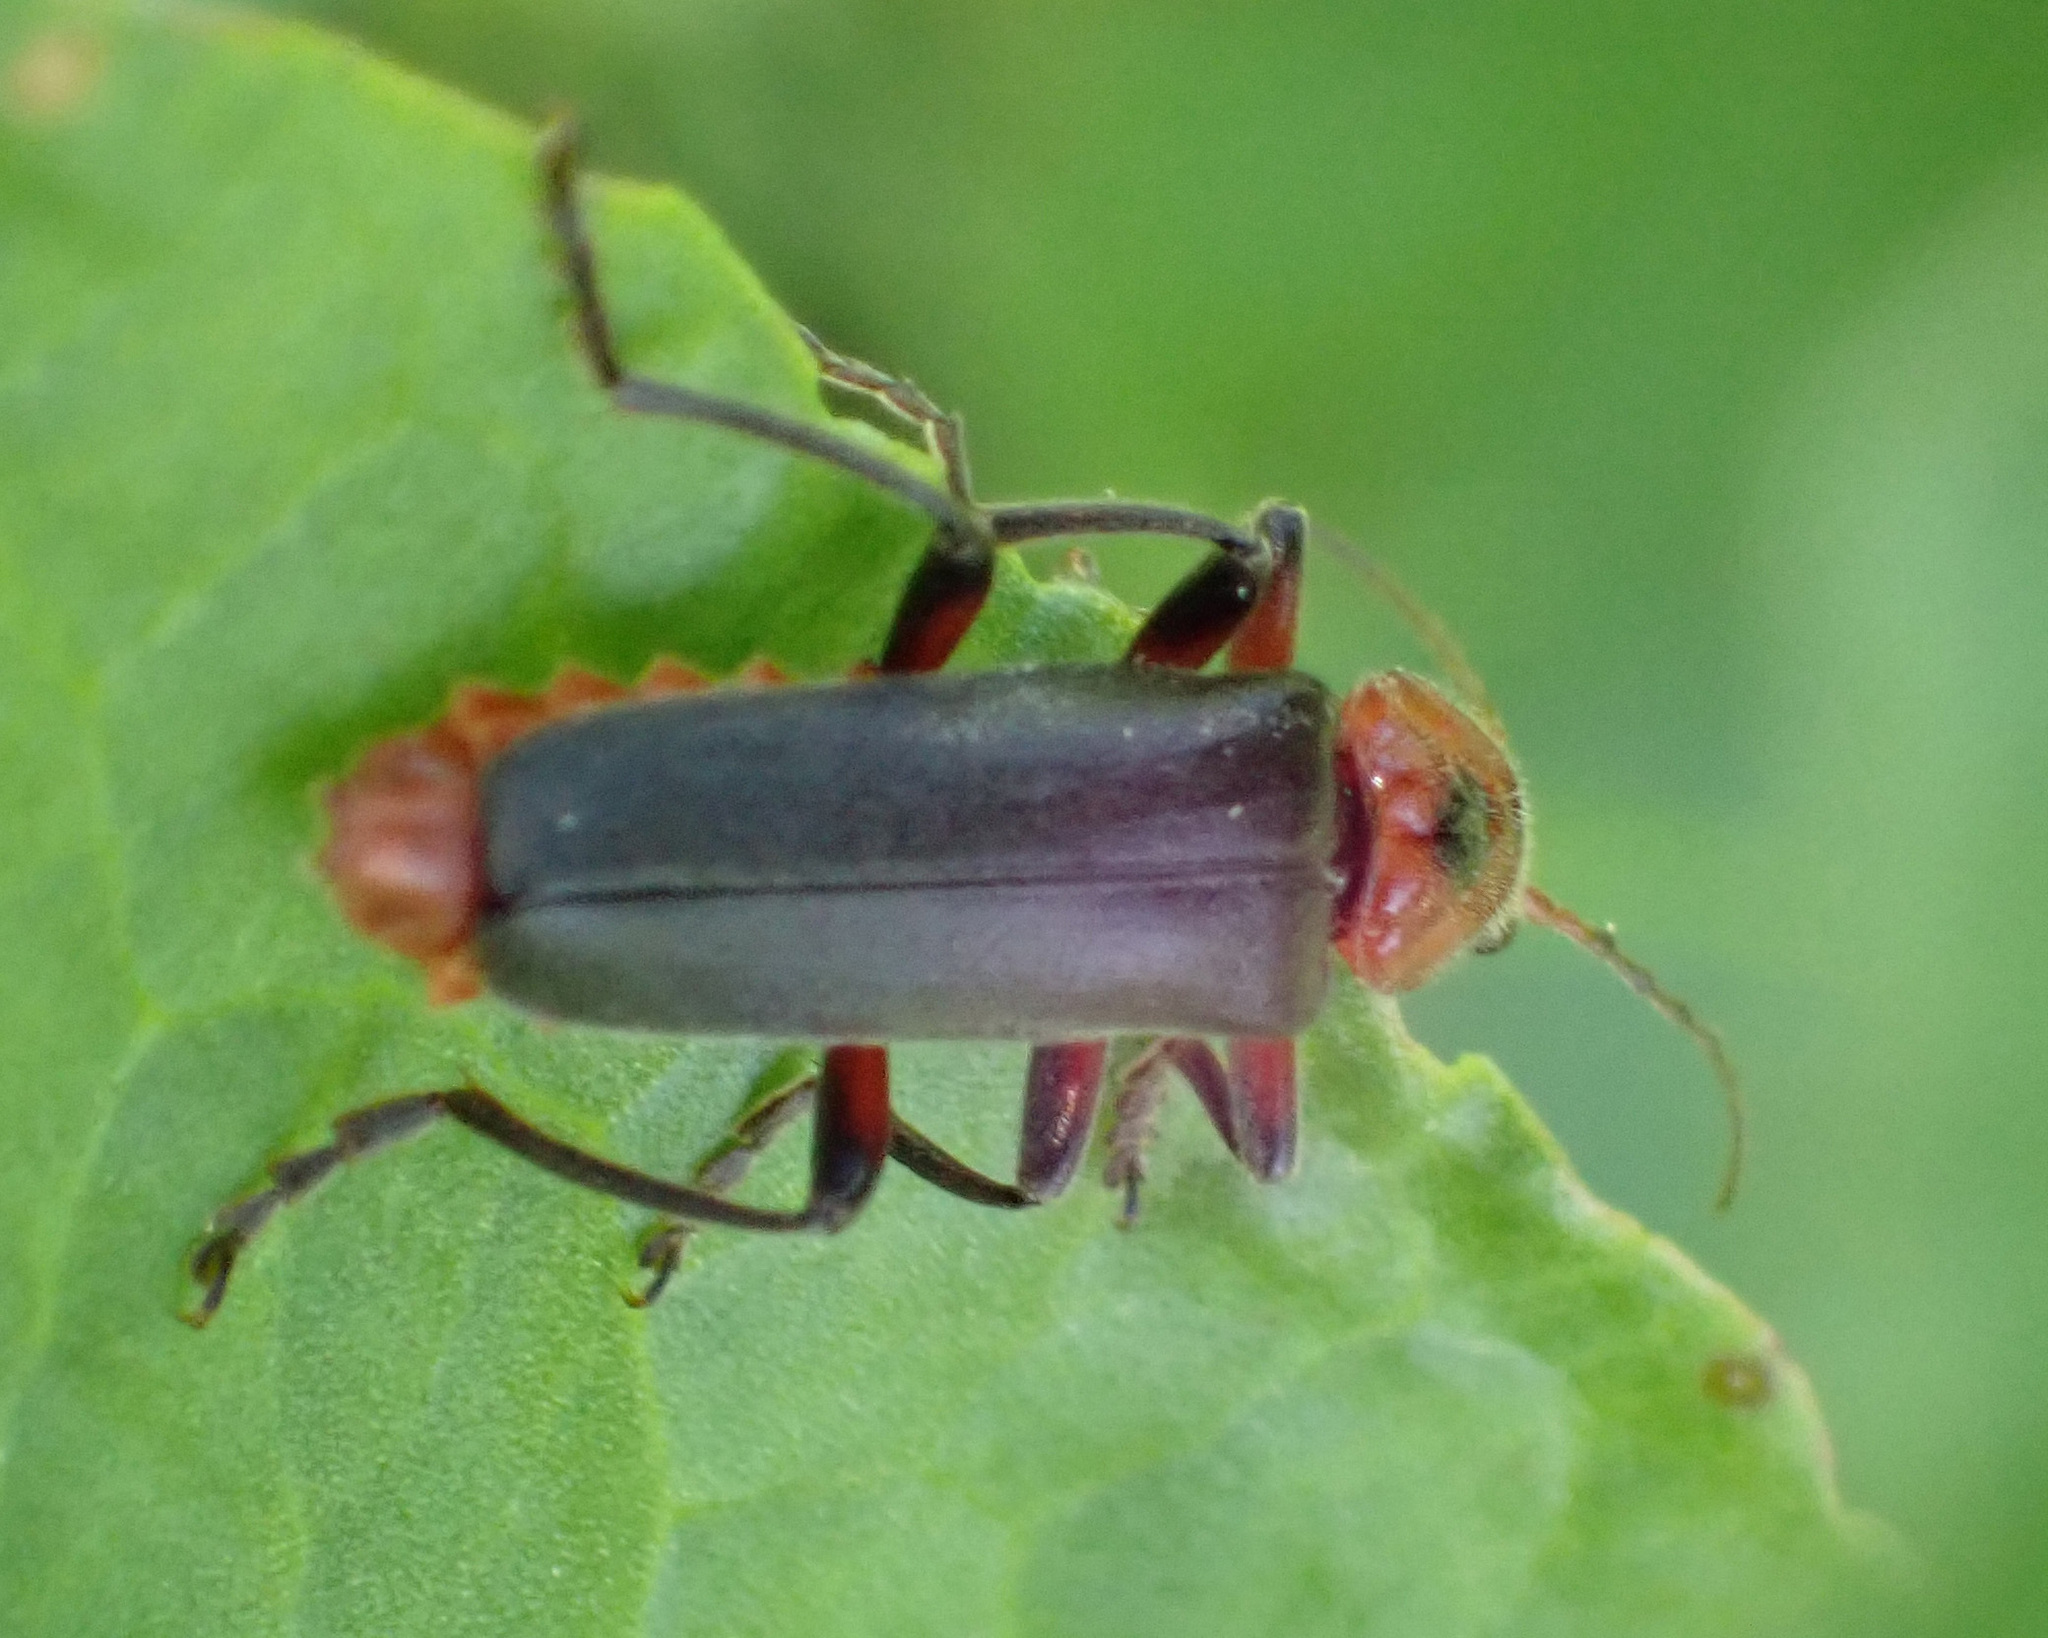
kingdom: Animalia
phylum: Arthropoda
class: Insecta
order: Coleoptera
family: Cantharidae
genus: Cantharis
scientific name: Cantharis rustica
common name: Soldier beetle
